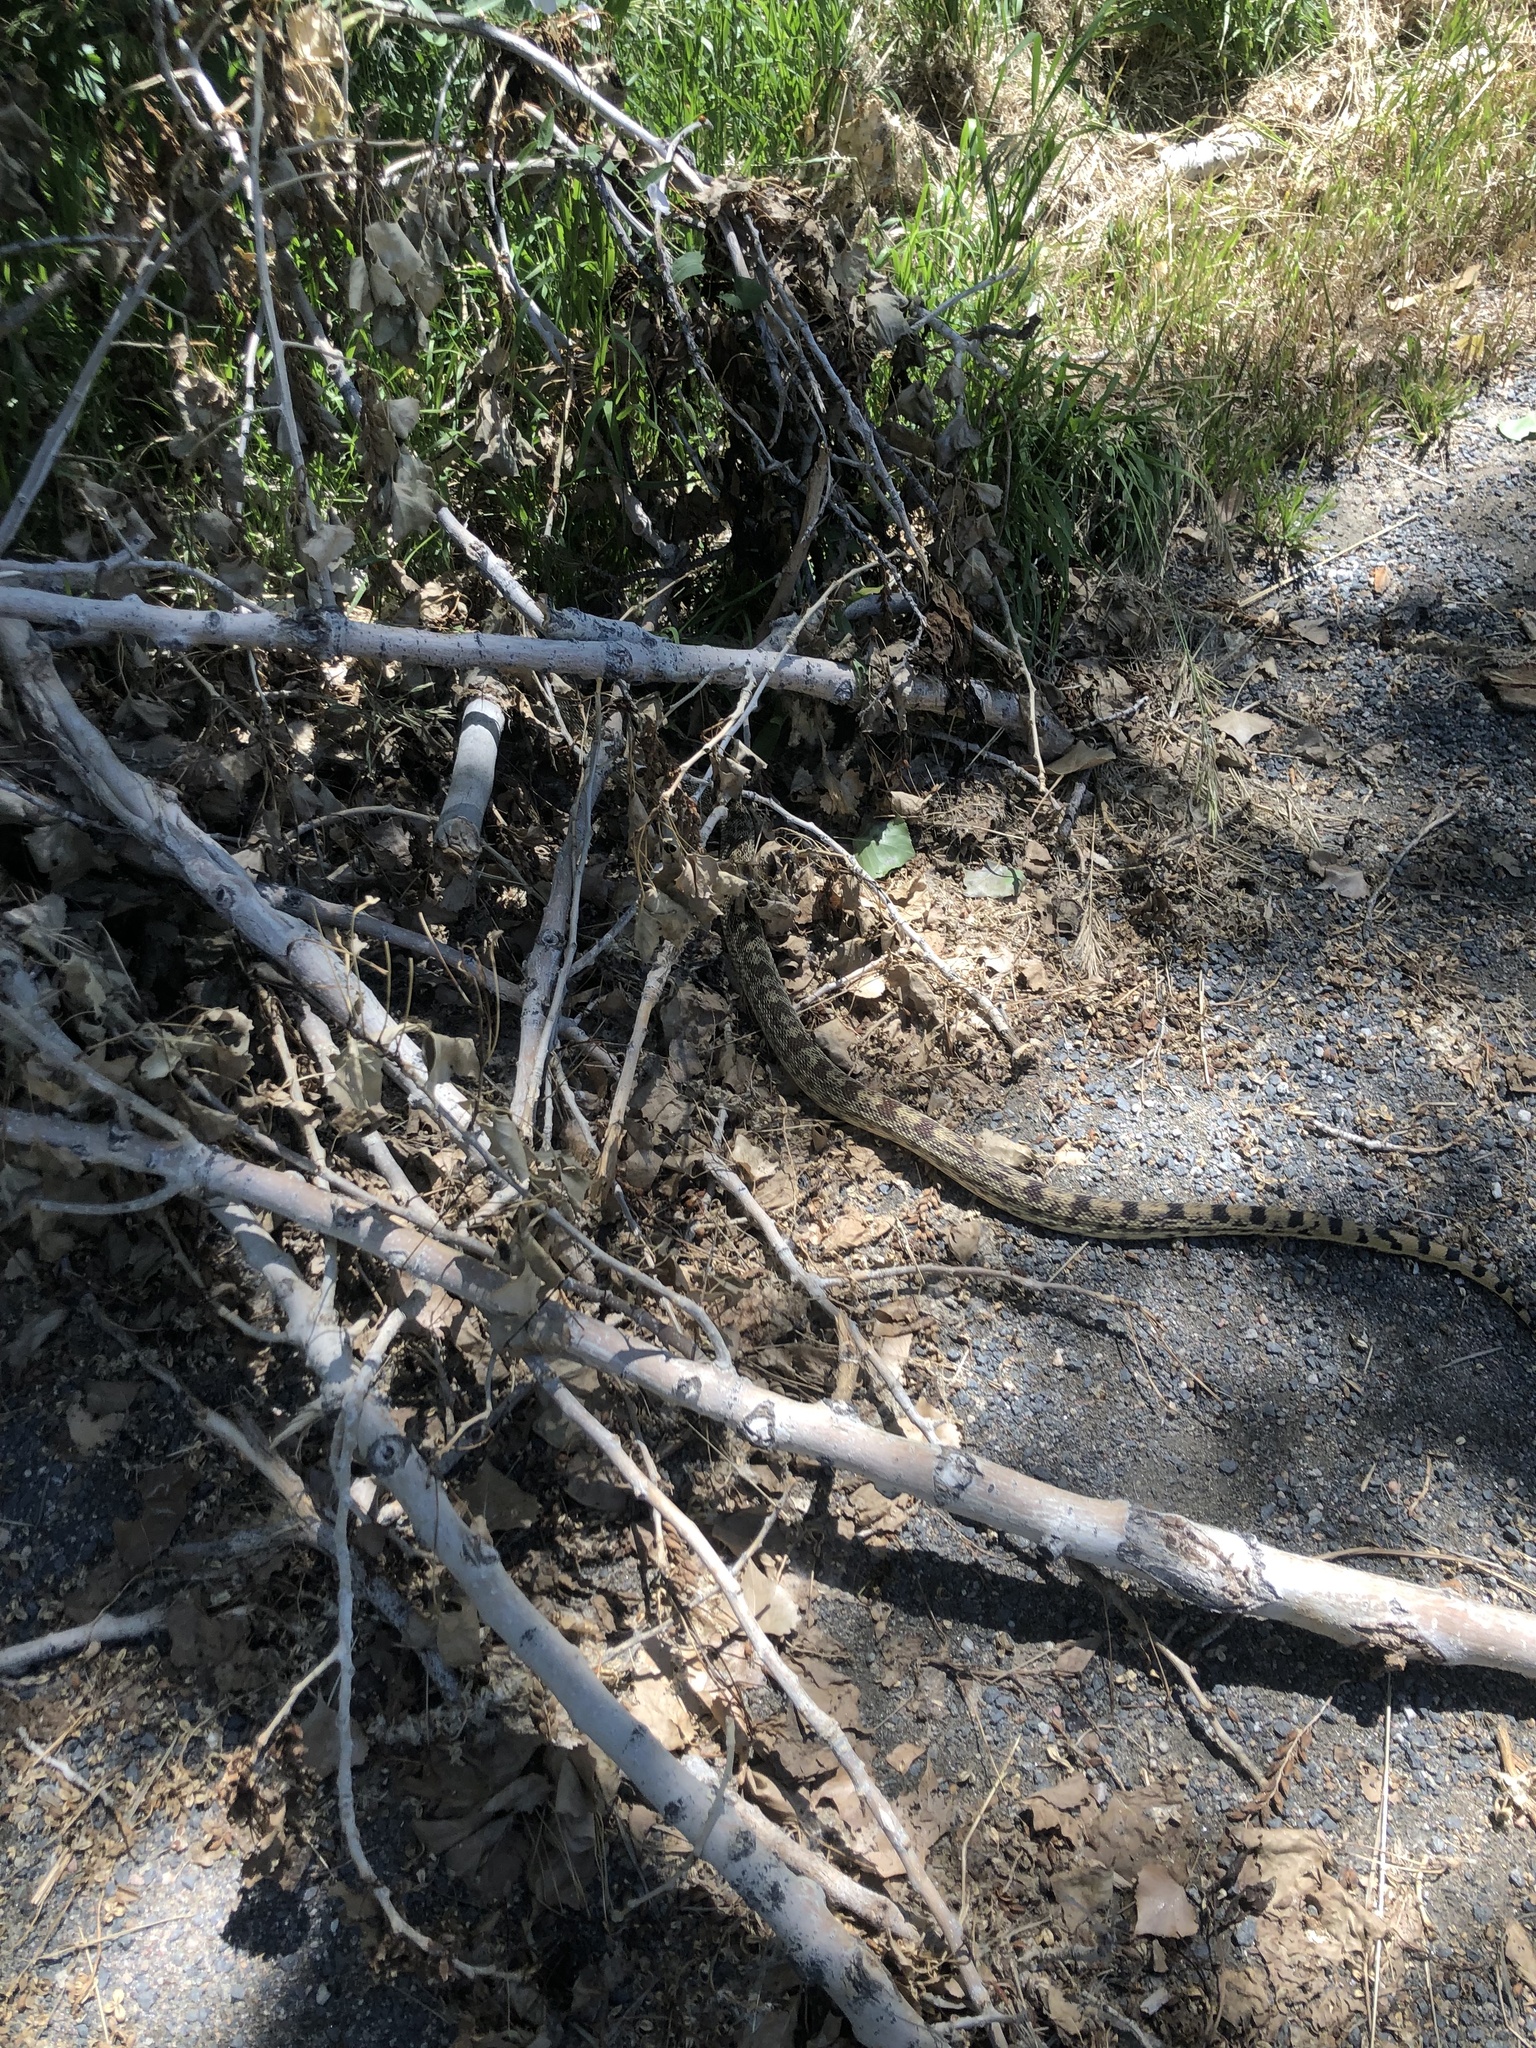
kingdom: Animalia
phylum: Chordata
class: Squamata
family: Colubridae
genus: Pituophis
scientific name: Pituophis catenifer
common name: Gopher snake
